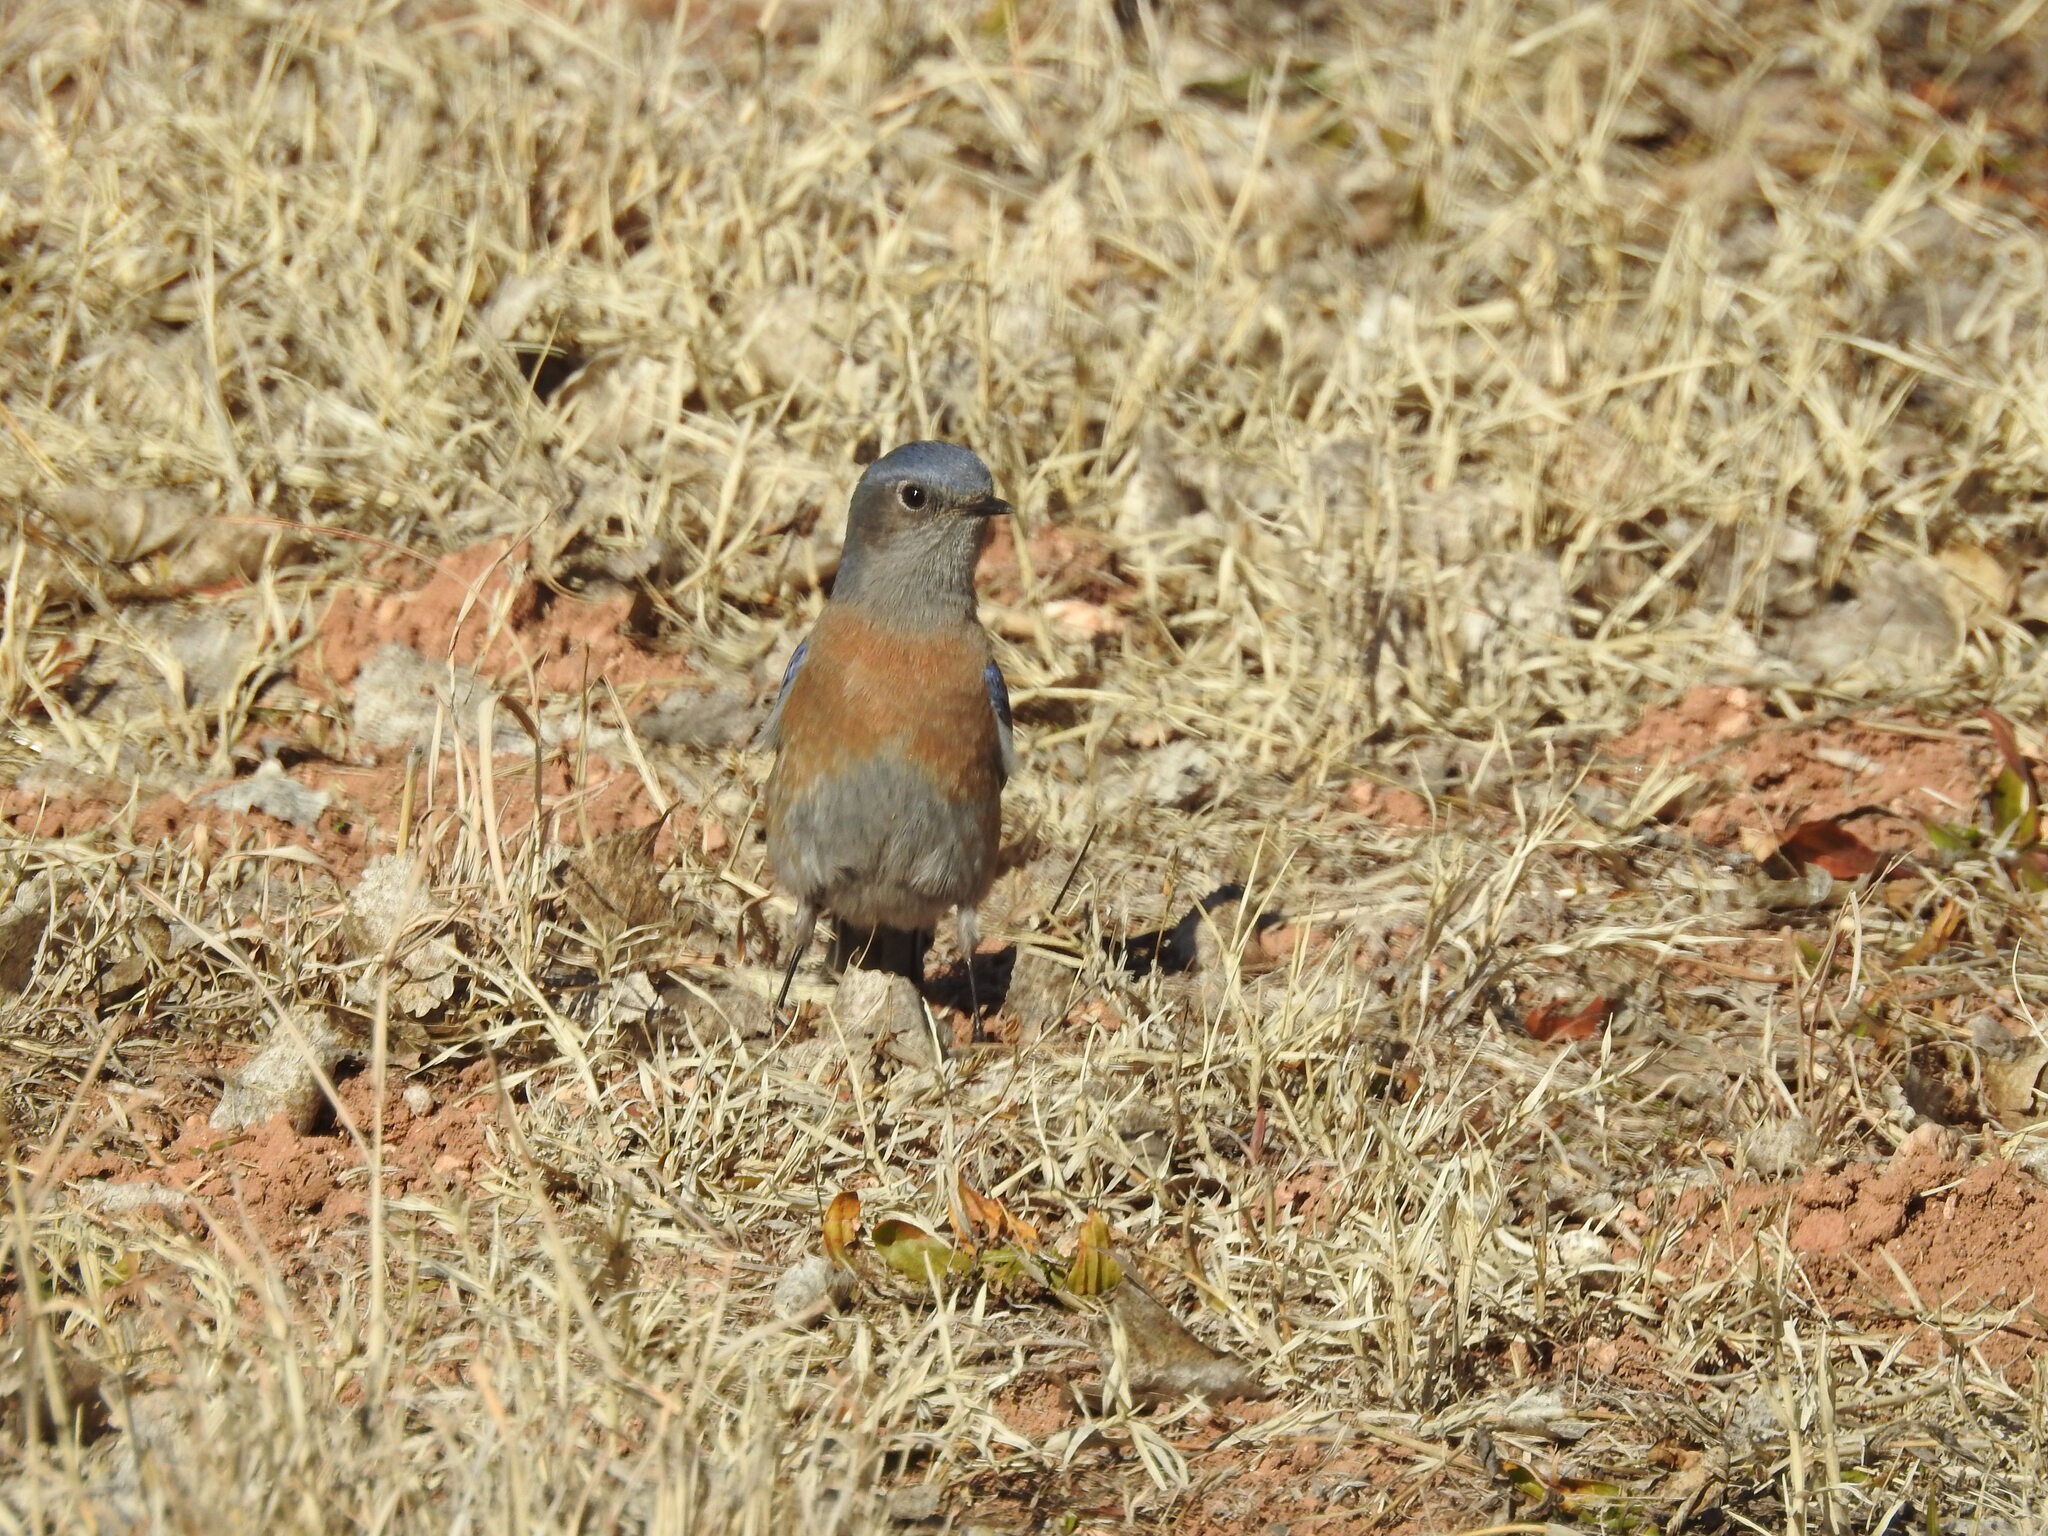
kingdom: Animalia
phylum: Chordata
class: Aves
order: Passeriformes
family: Turdidae
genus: Sialia
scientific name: Sialia mexicana
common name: Western bluebird
